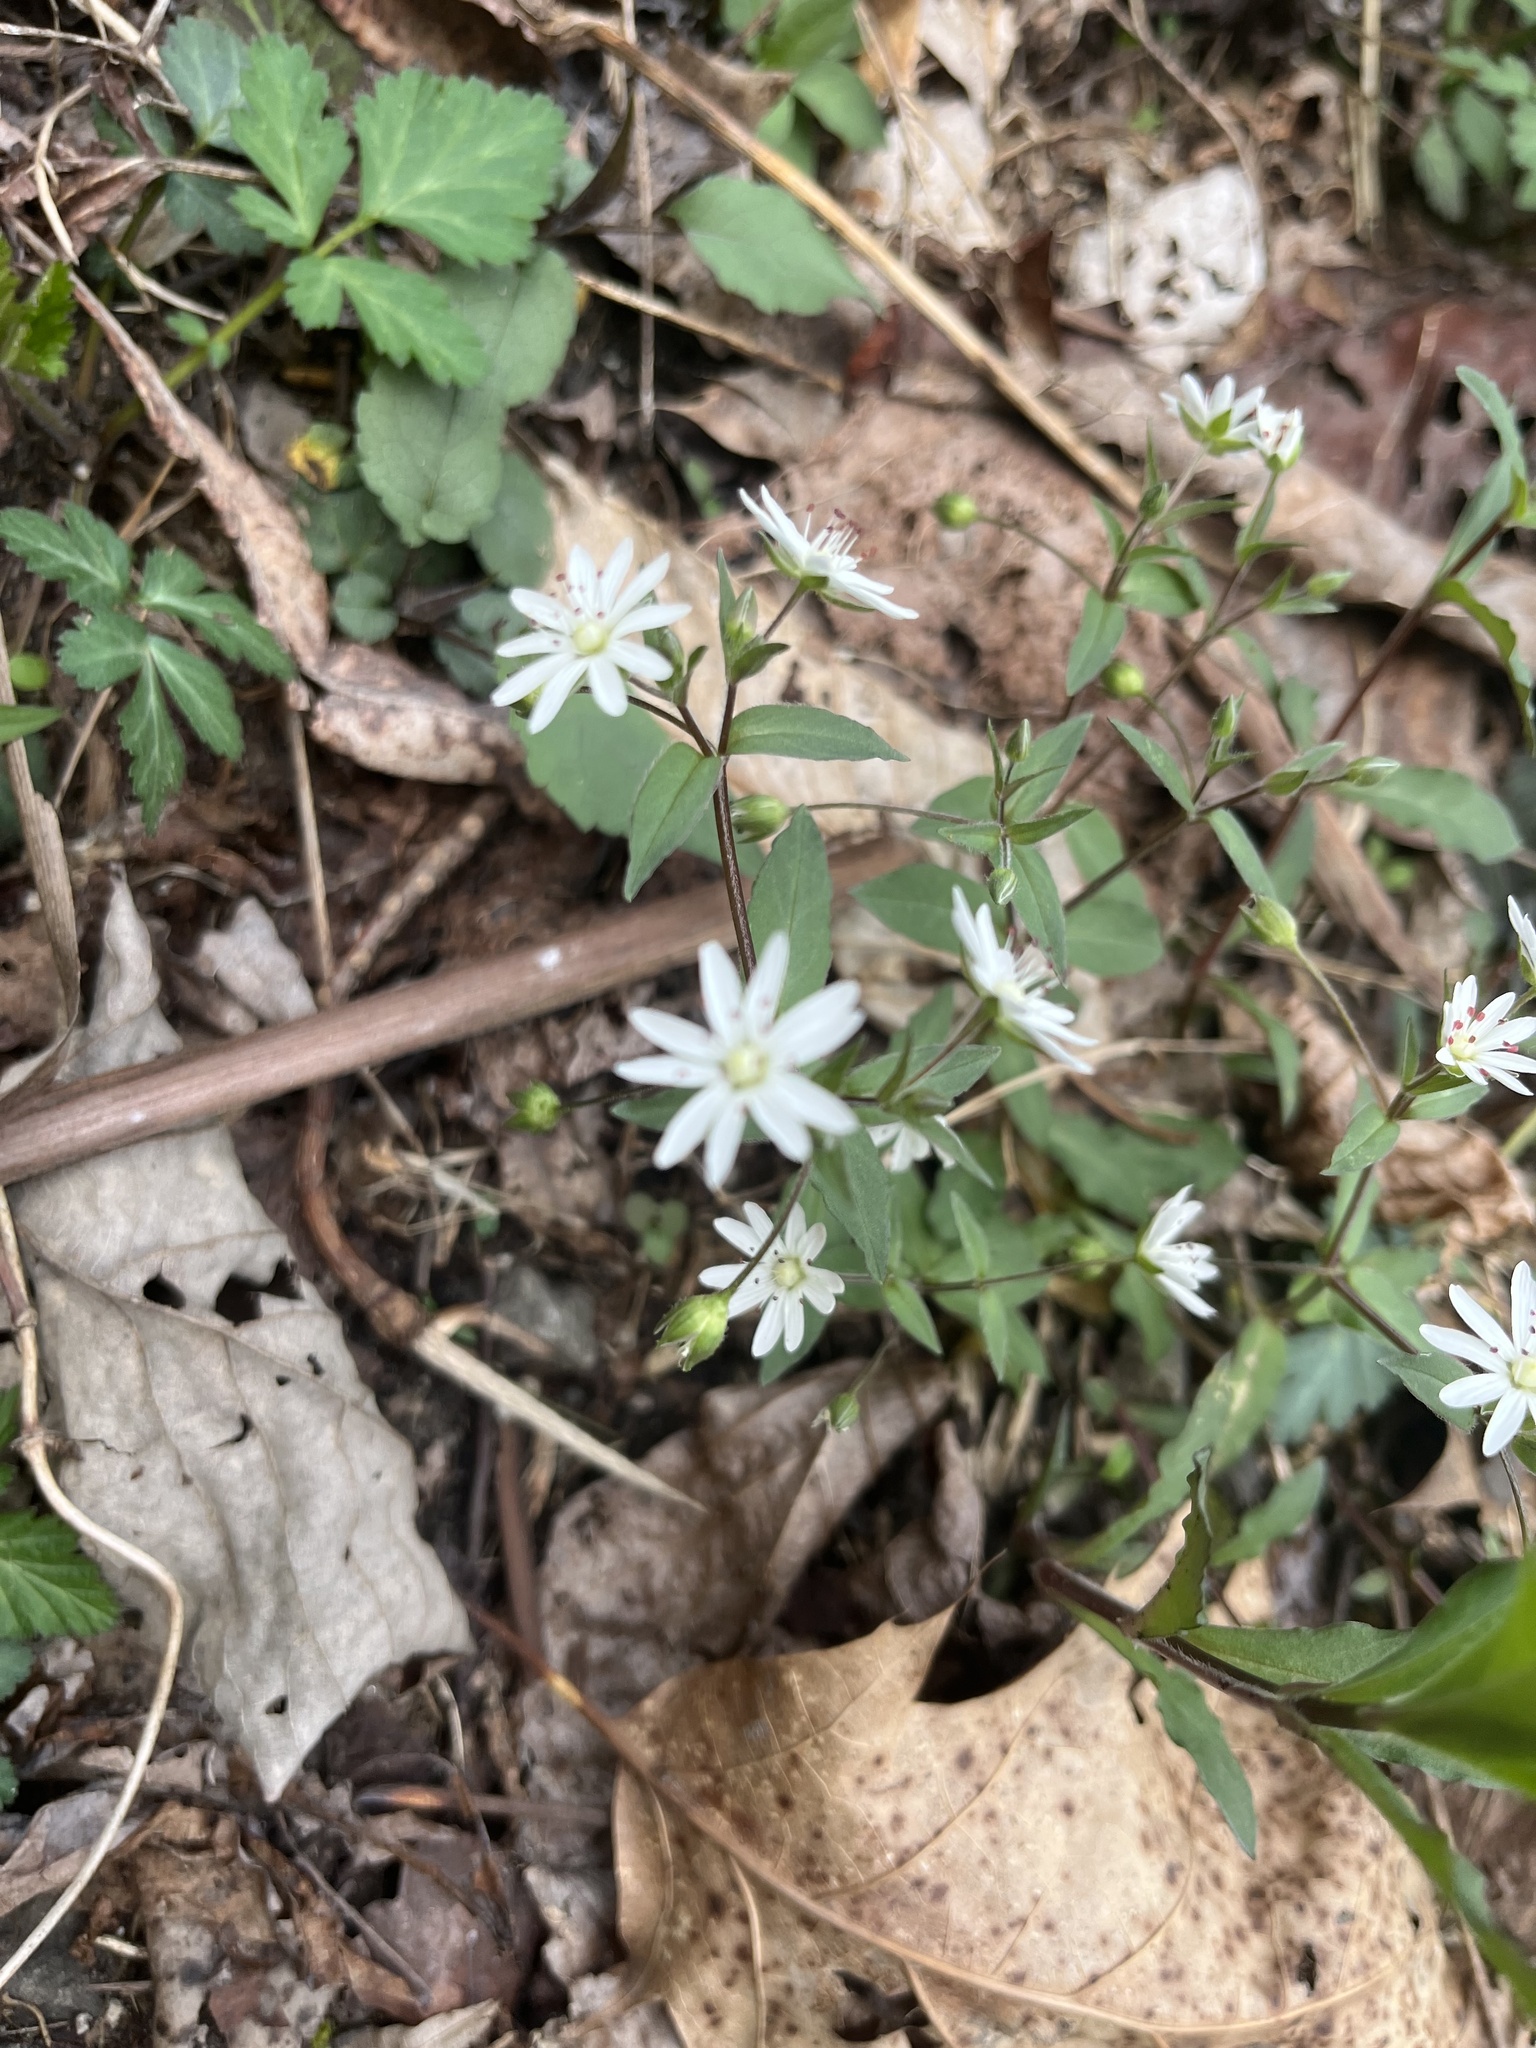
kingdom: Plantae
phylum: Tracheophyta
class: Magnoliopsida
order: Caryophyllales
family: Caryophyllaceae
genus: Stellaria
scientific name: Stellaria pubera
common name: Star chickweed
